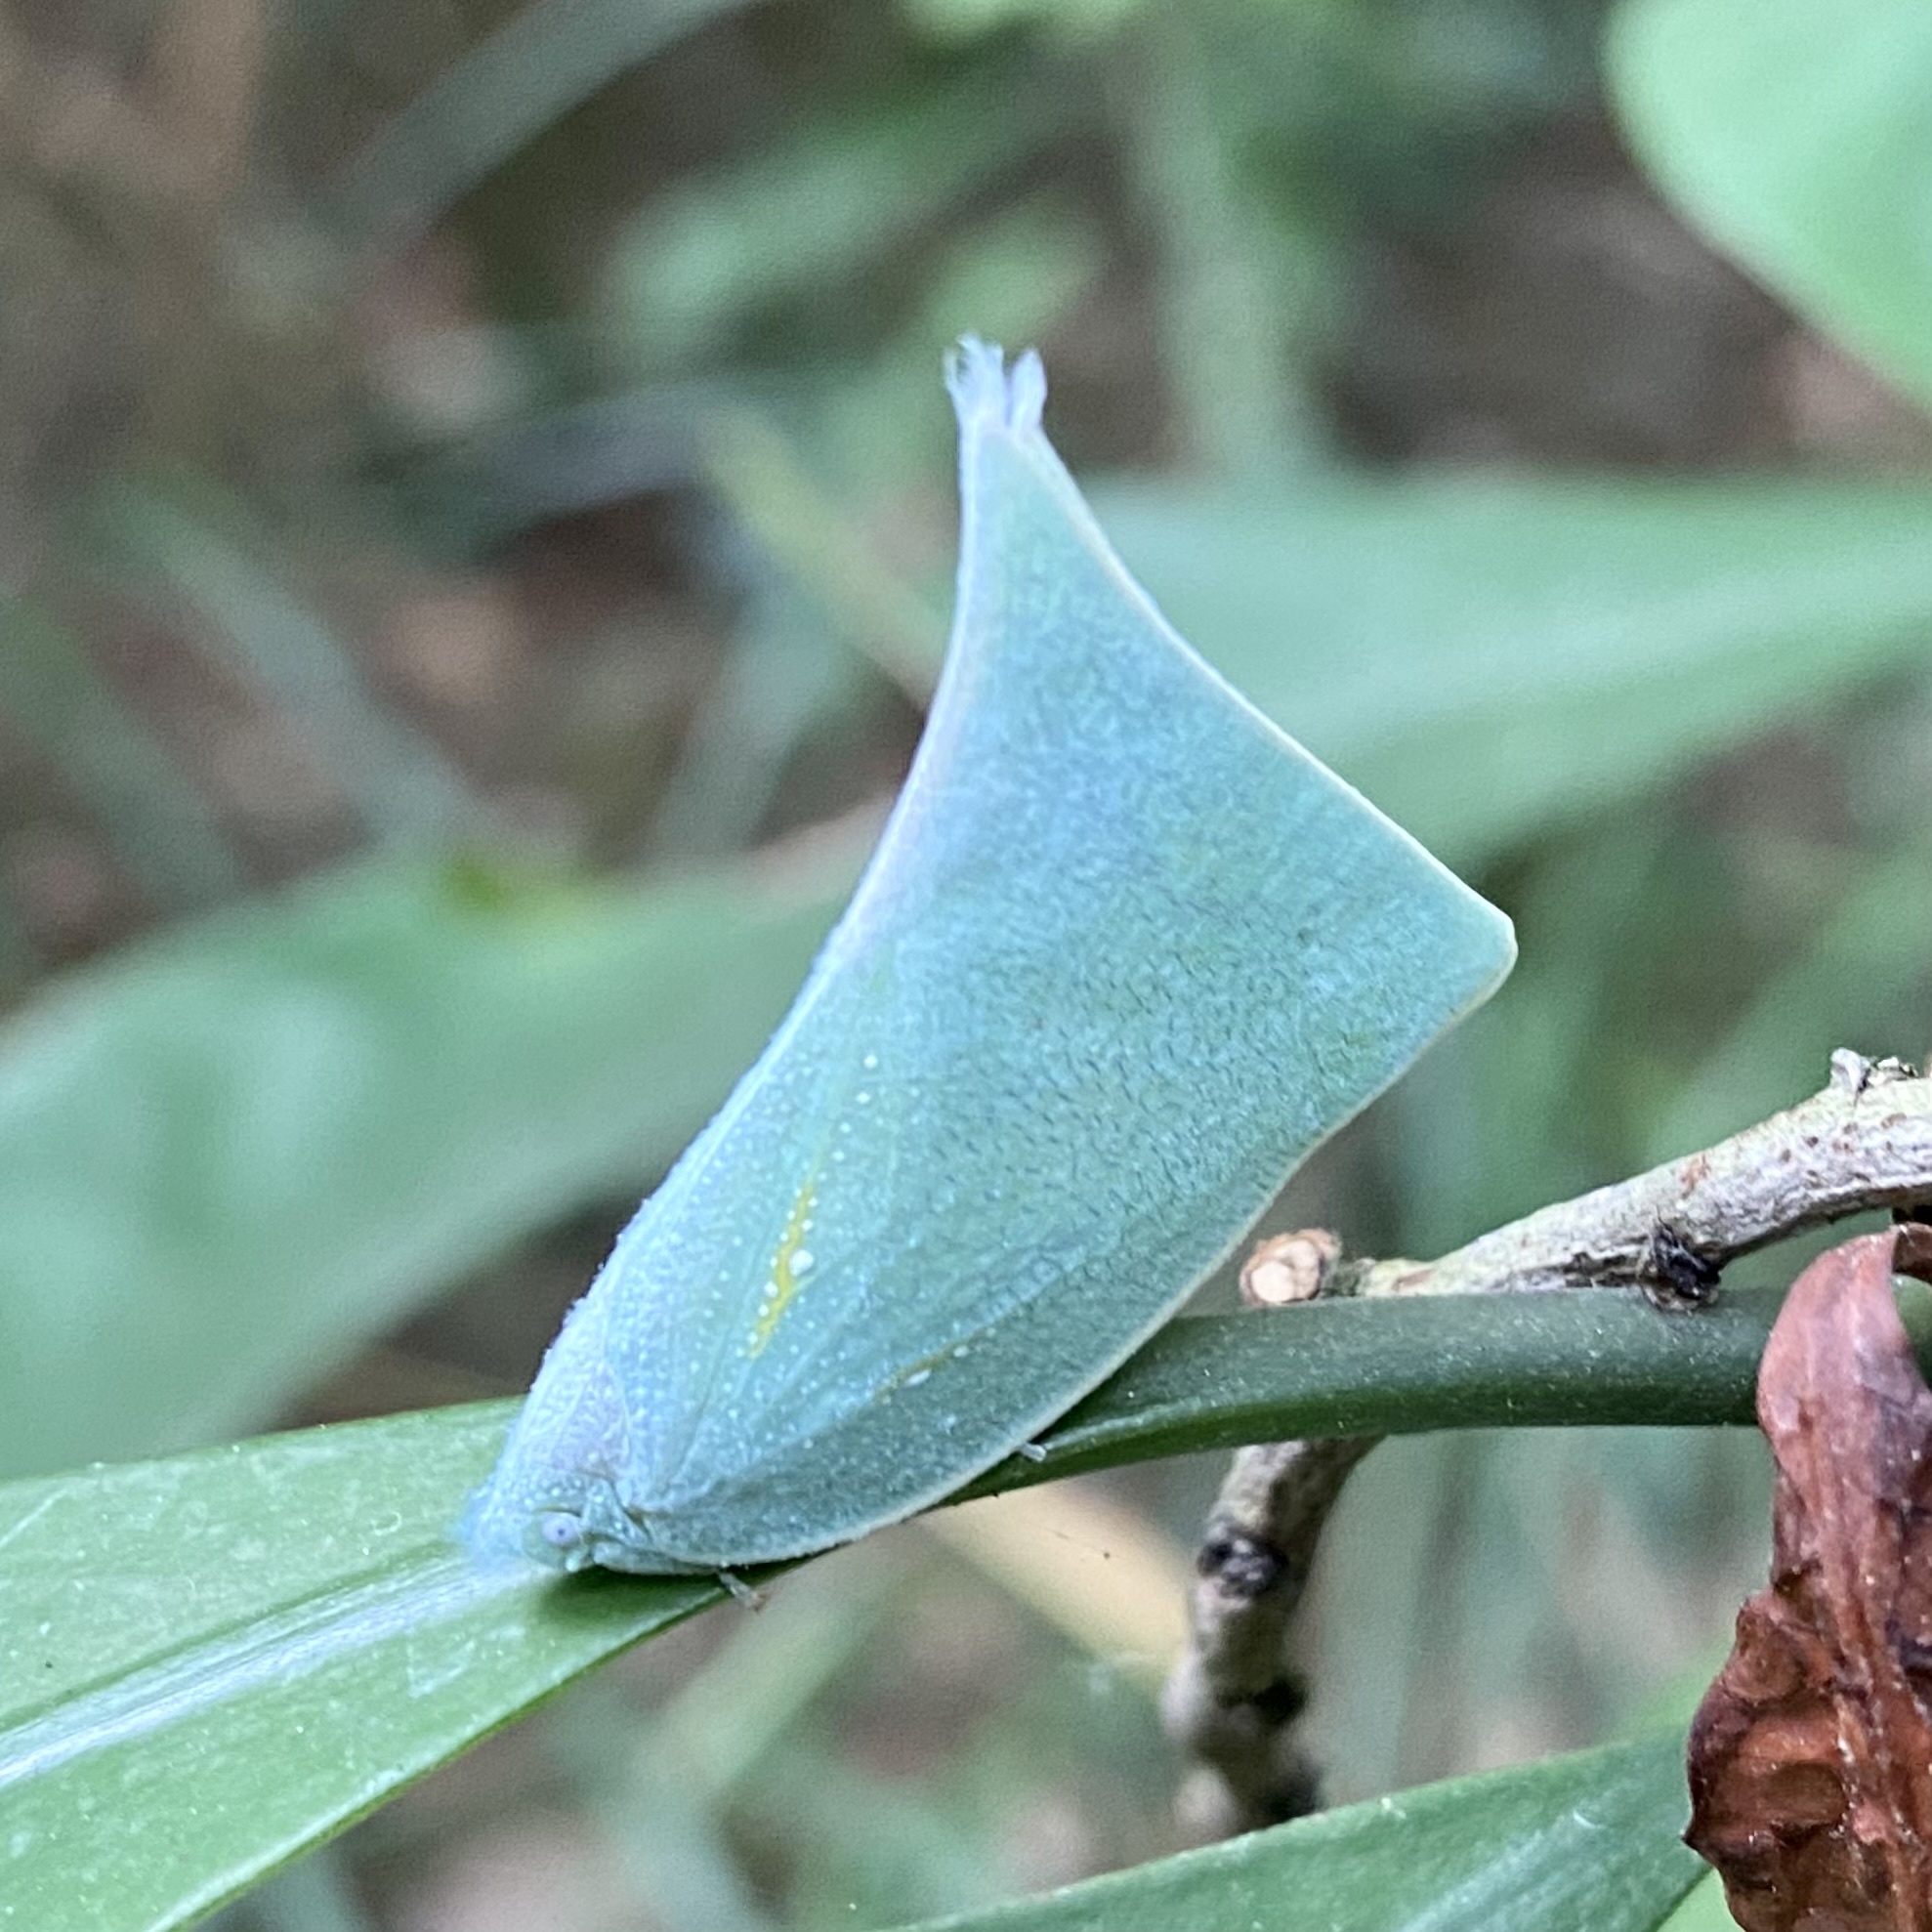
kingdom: Animalia
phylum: Arthropoda
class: Insecta
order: Hemiptera
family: Flatidae
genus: Lawana
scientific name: Lawana imitata
